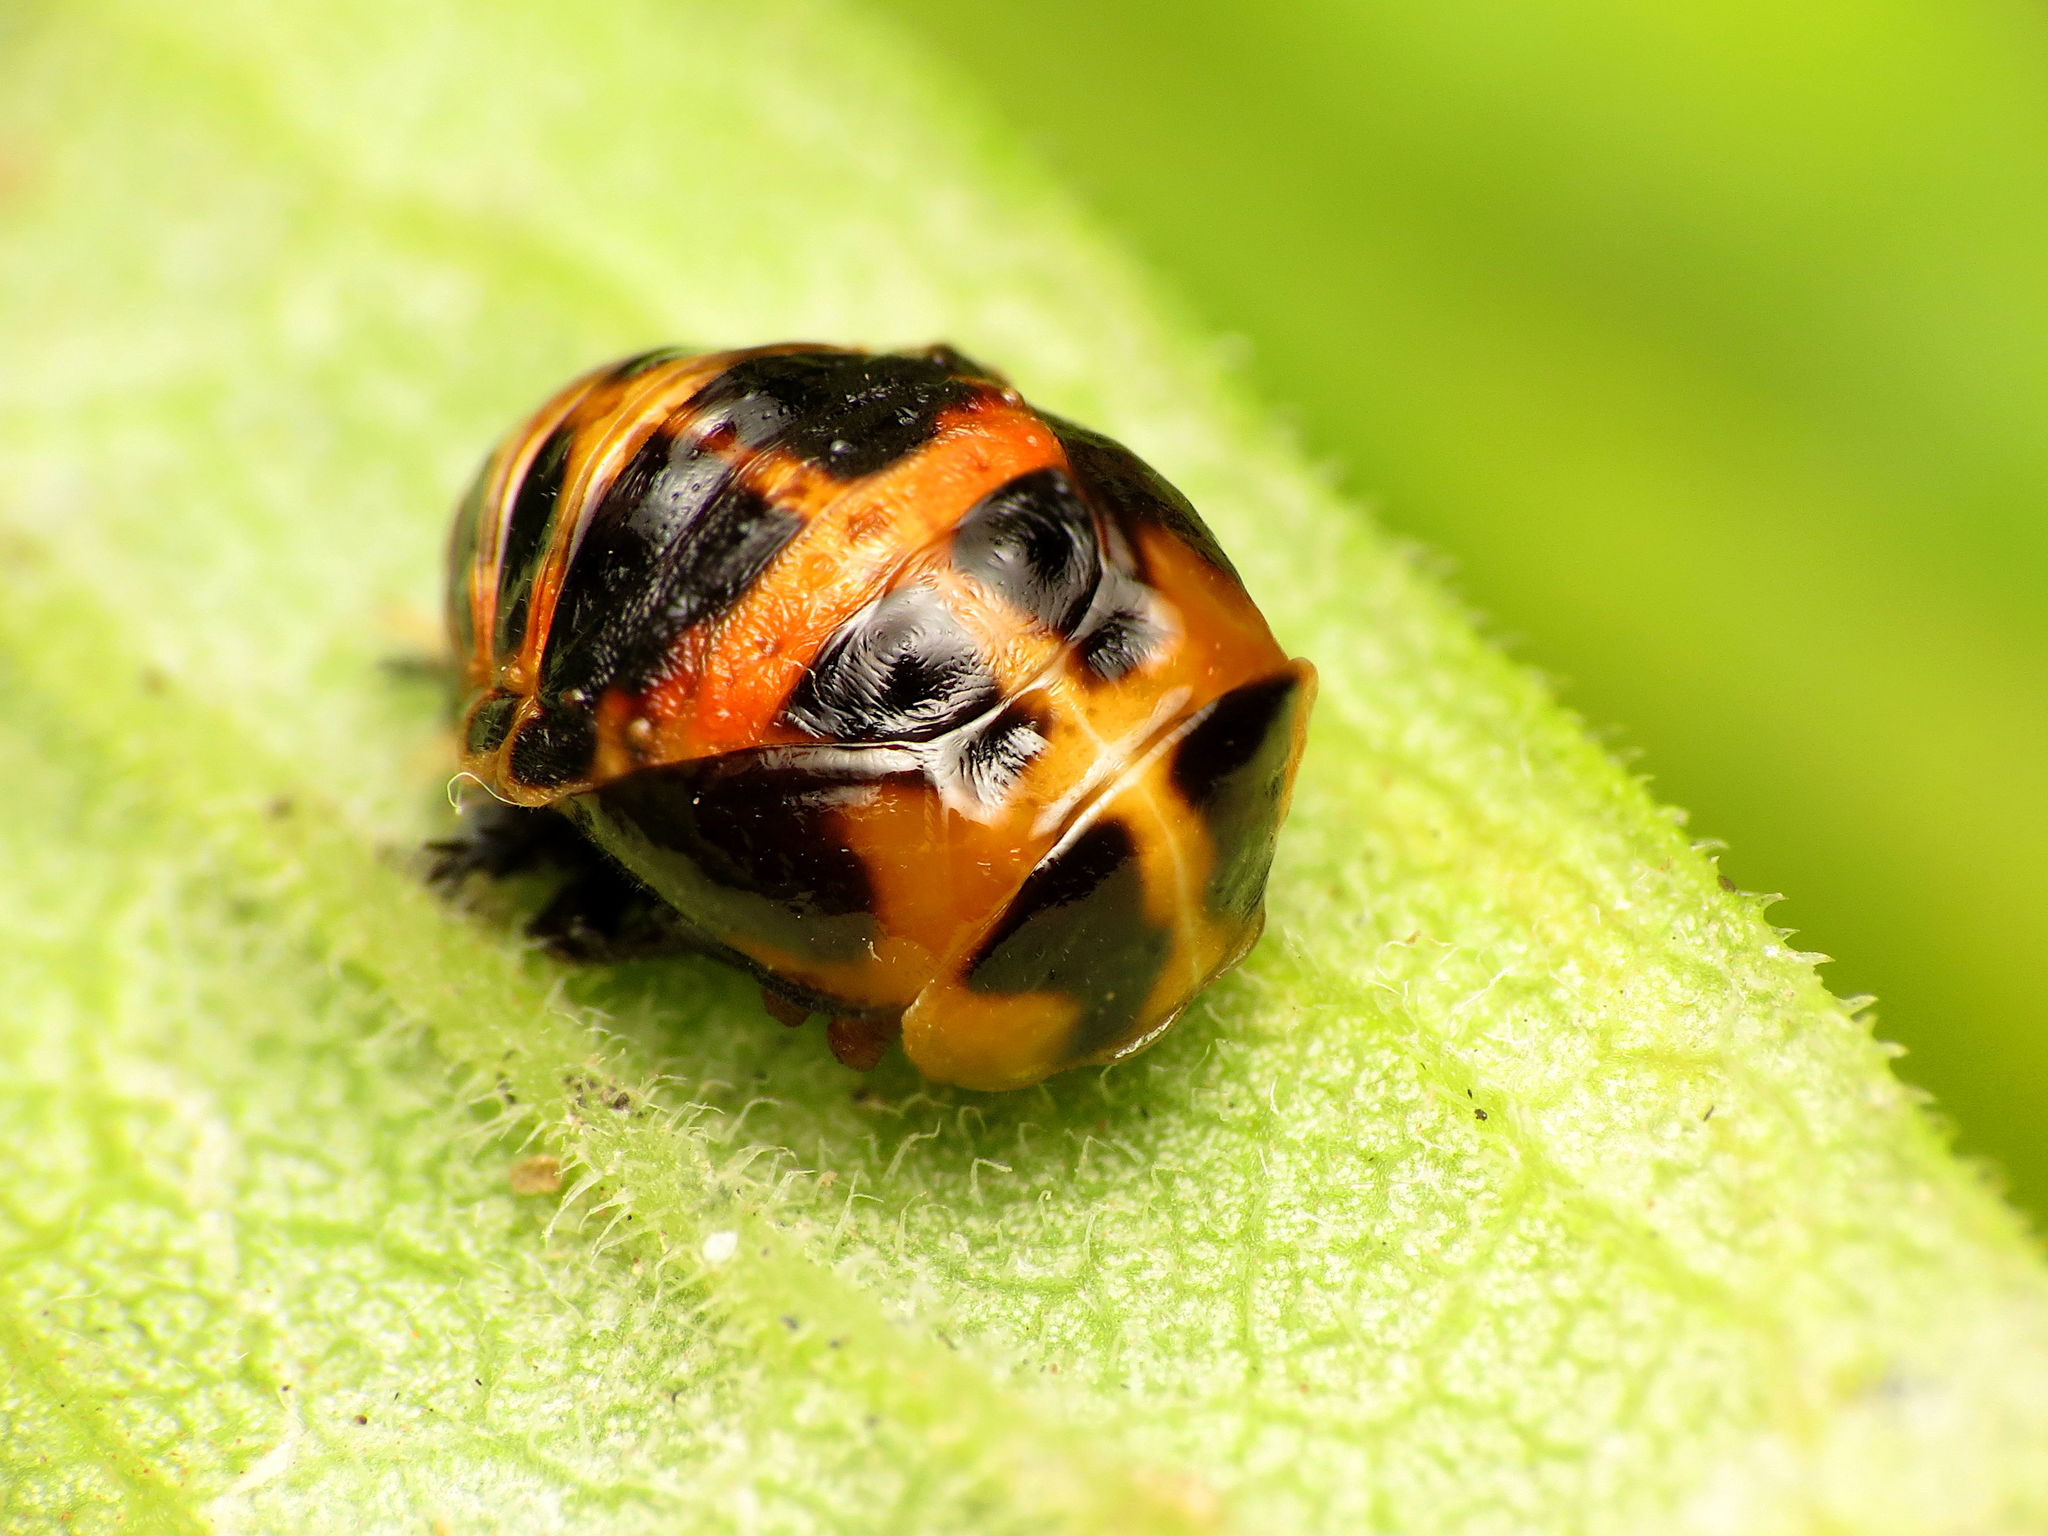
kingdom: Animalia
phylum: Arthropoda
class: Insecta
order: Coleoptera
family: Coccinellidae
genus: Harmonia
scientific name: Harmonia axyridis
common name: Harlequin ladybird
